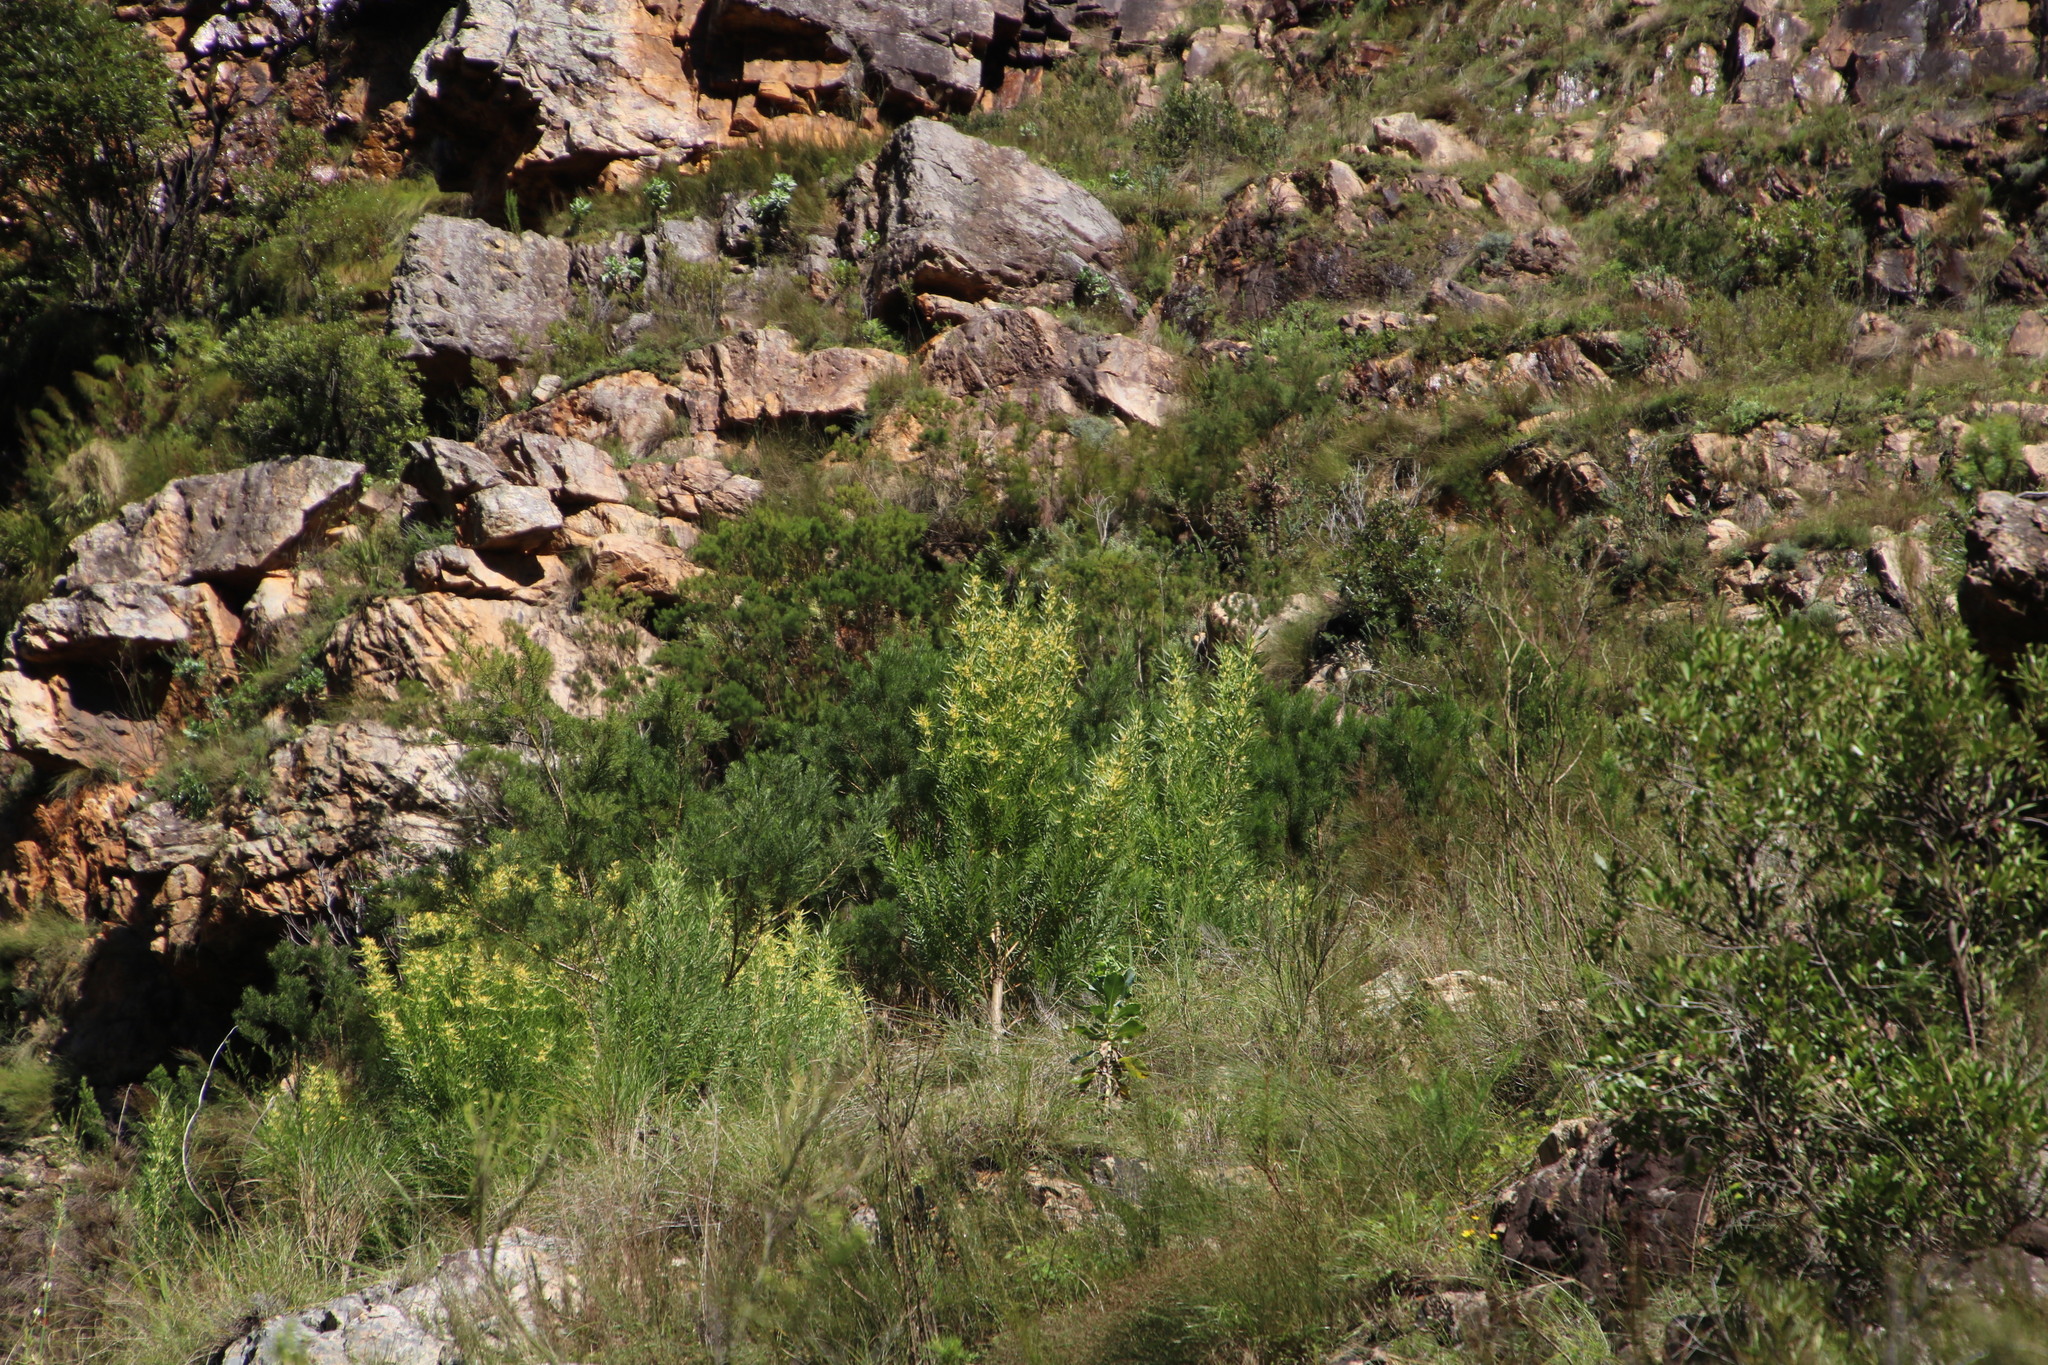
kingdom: Plantae
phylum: Tracheophyta
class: Magnoliopsida
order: Proteales
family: Proteaceae
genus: Leucadendron
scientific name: Leucadendron salicifolium
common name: Common stream conebush
